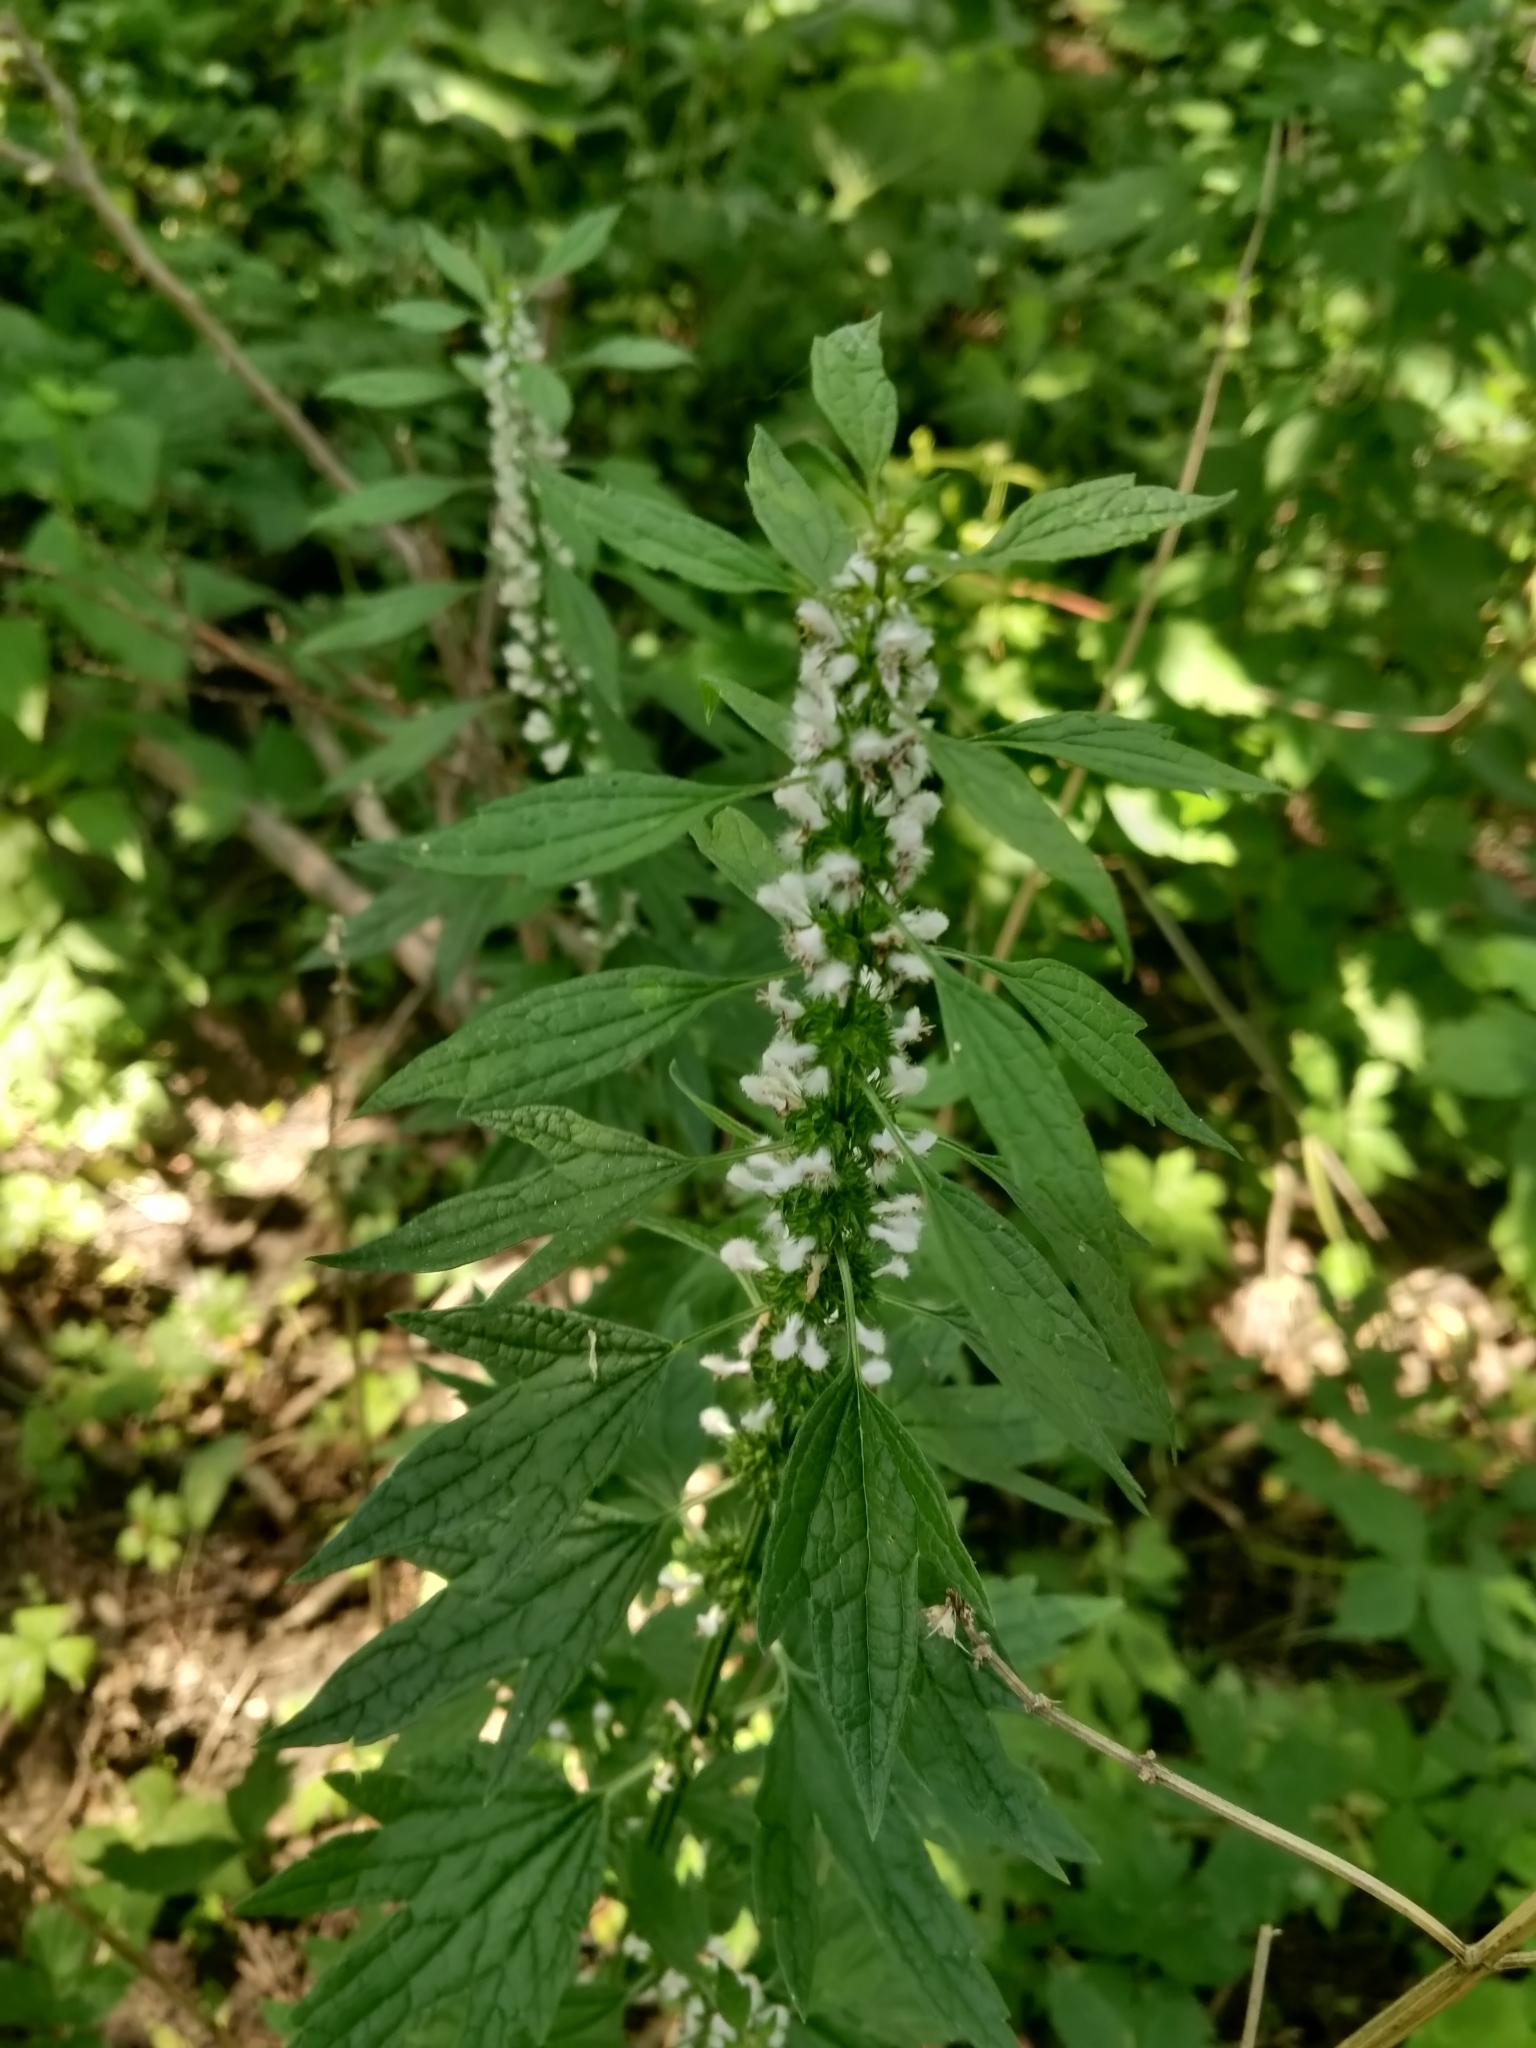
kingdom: Plantae
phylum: Tracheophyta
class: Magnoliopsida
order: Lamiales
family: Lamiaceae
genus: Leonurus
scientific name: Leonurus cardiaca
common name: Motherwort
